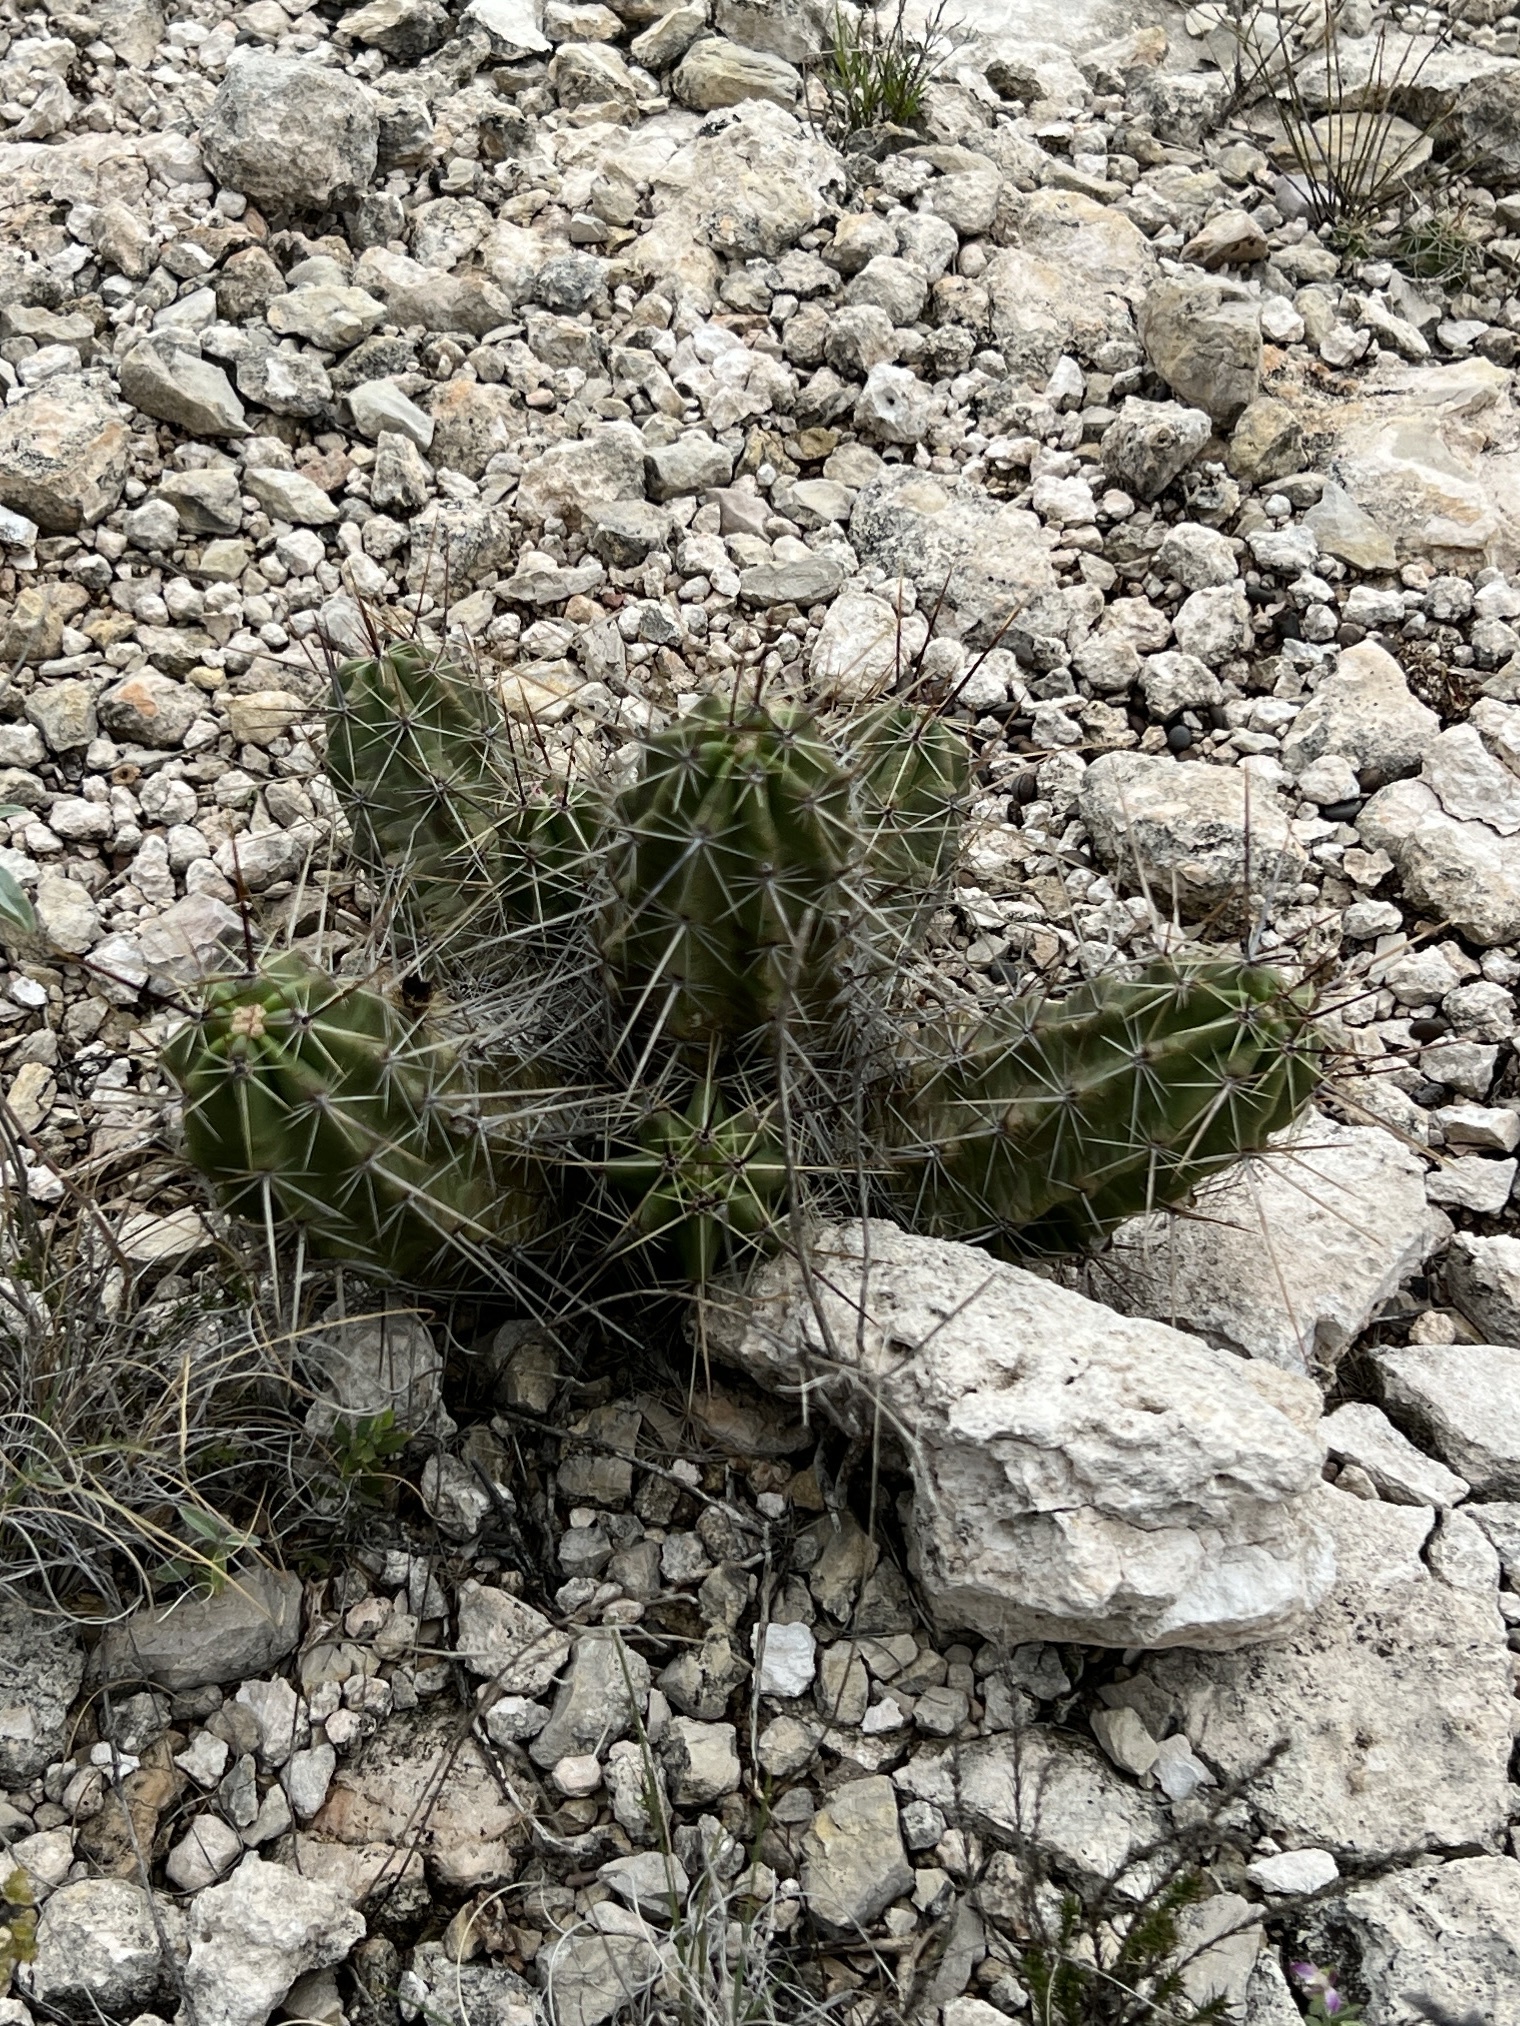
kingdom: Plantae
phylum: Tracheophyta
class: Magnoliopsida
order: Caryophyllales
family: Cactaceae
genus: Echinocereus
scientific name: Echinocereus enneacanthus
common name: Pitaya
